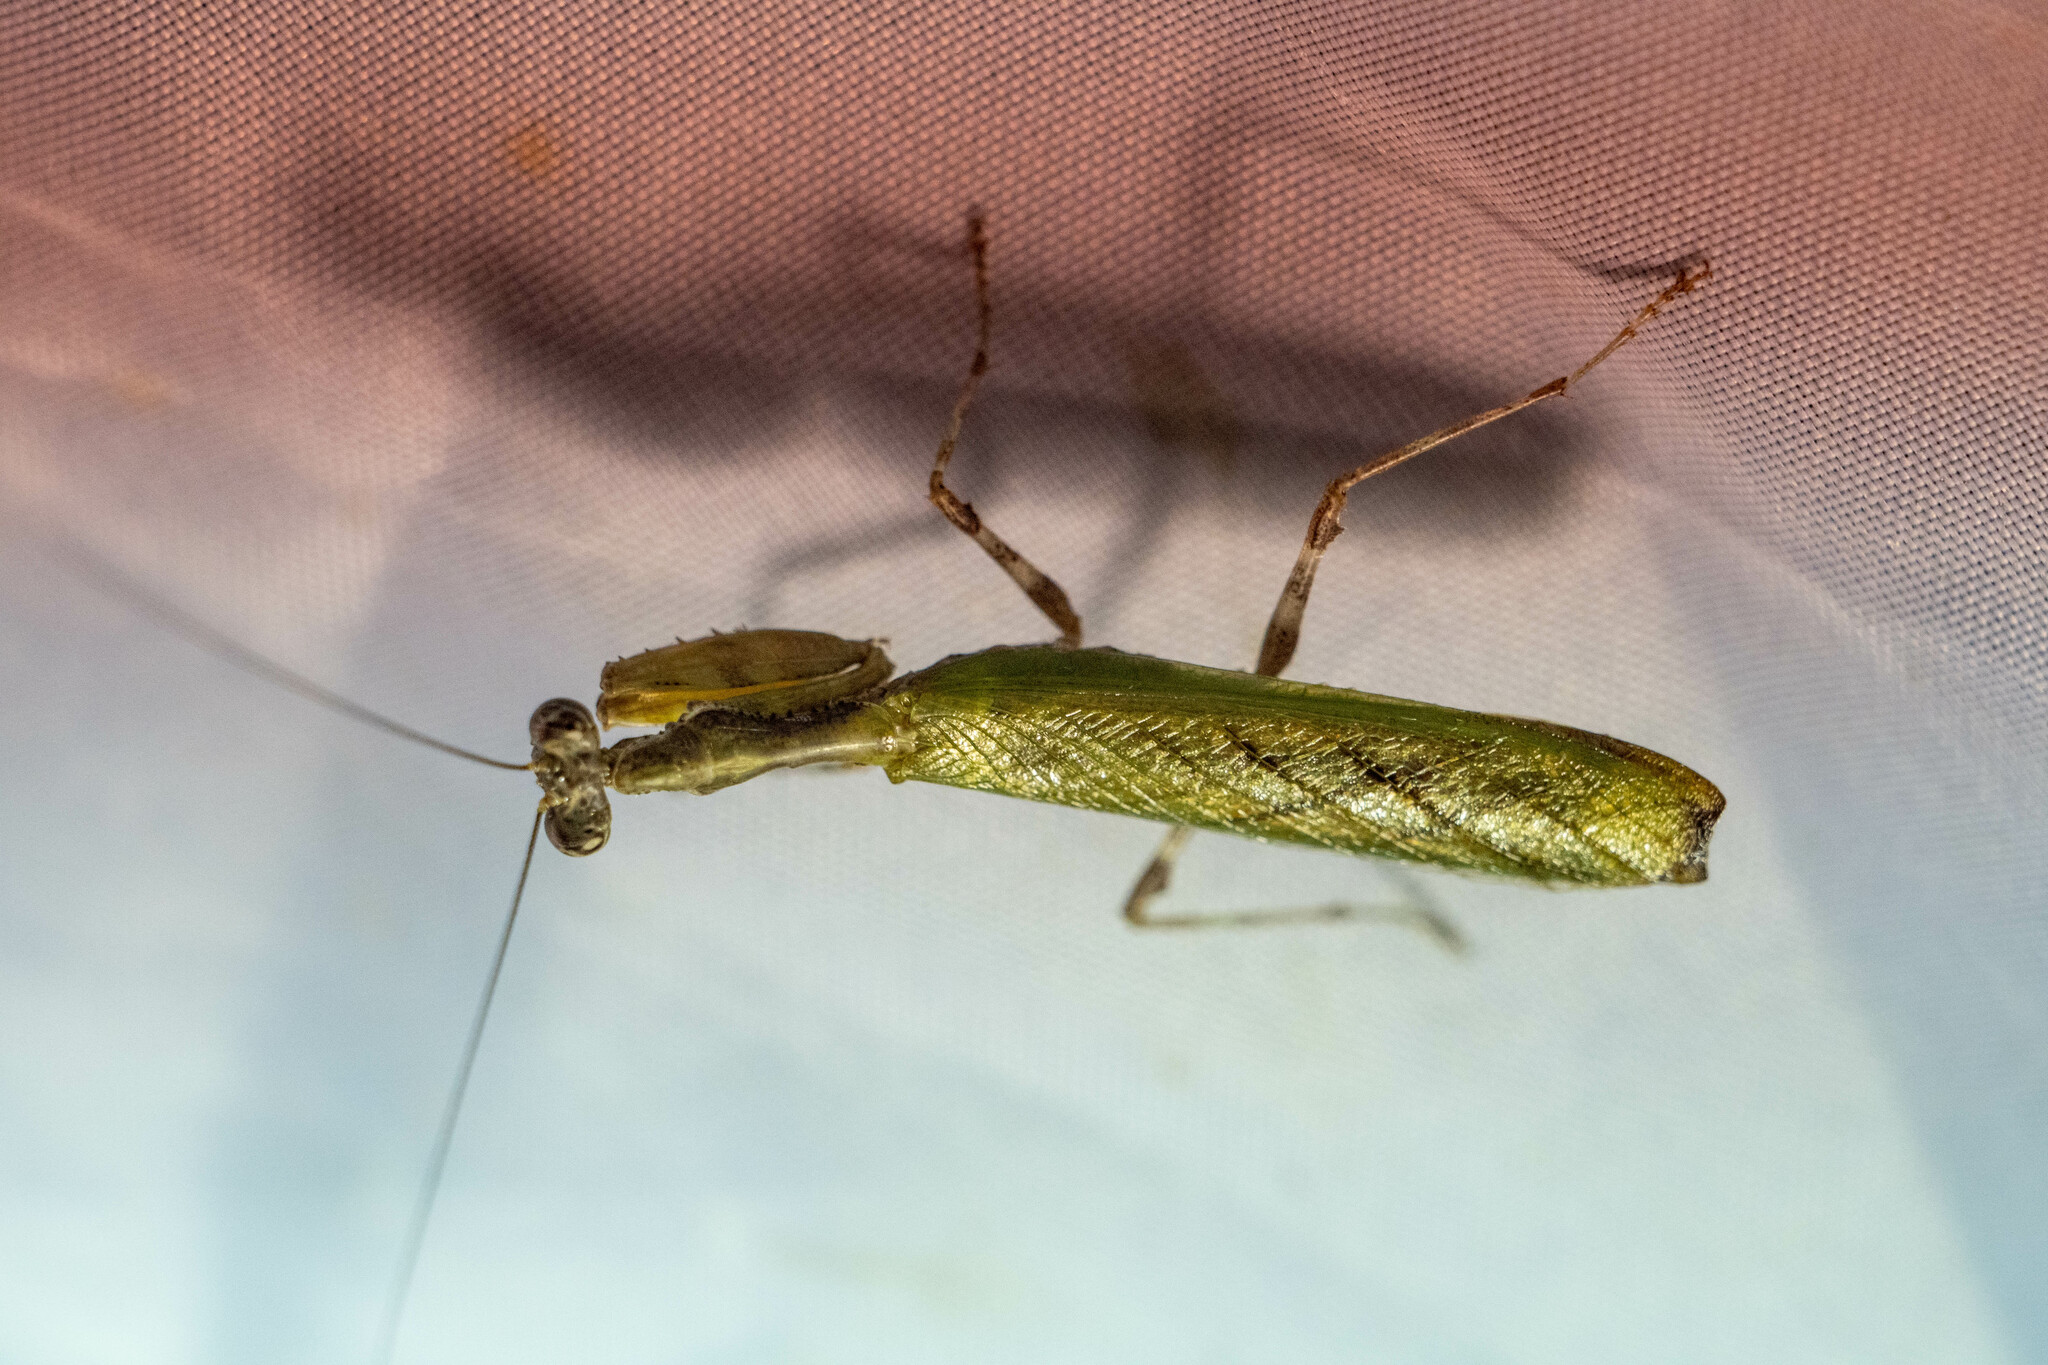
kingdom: Animalia
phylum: Arthropoda
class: Insecta
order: Mantodea
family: Hymenopodidae
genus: Acromantis
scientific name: Acromantis japonica
